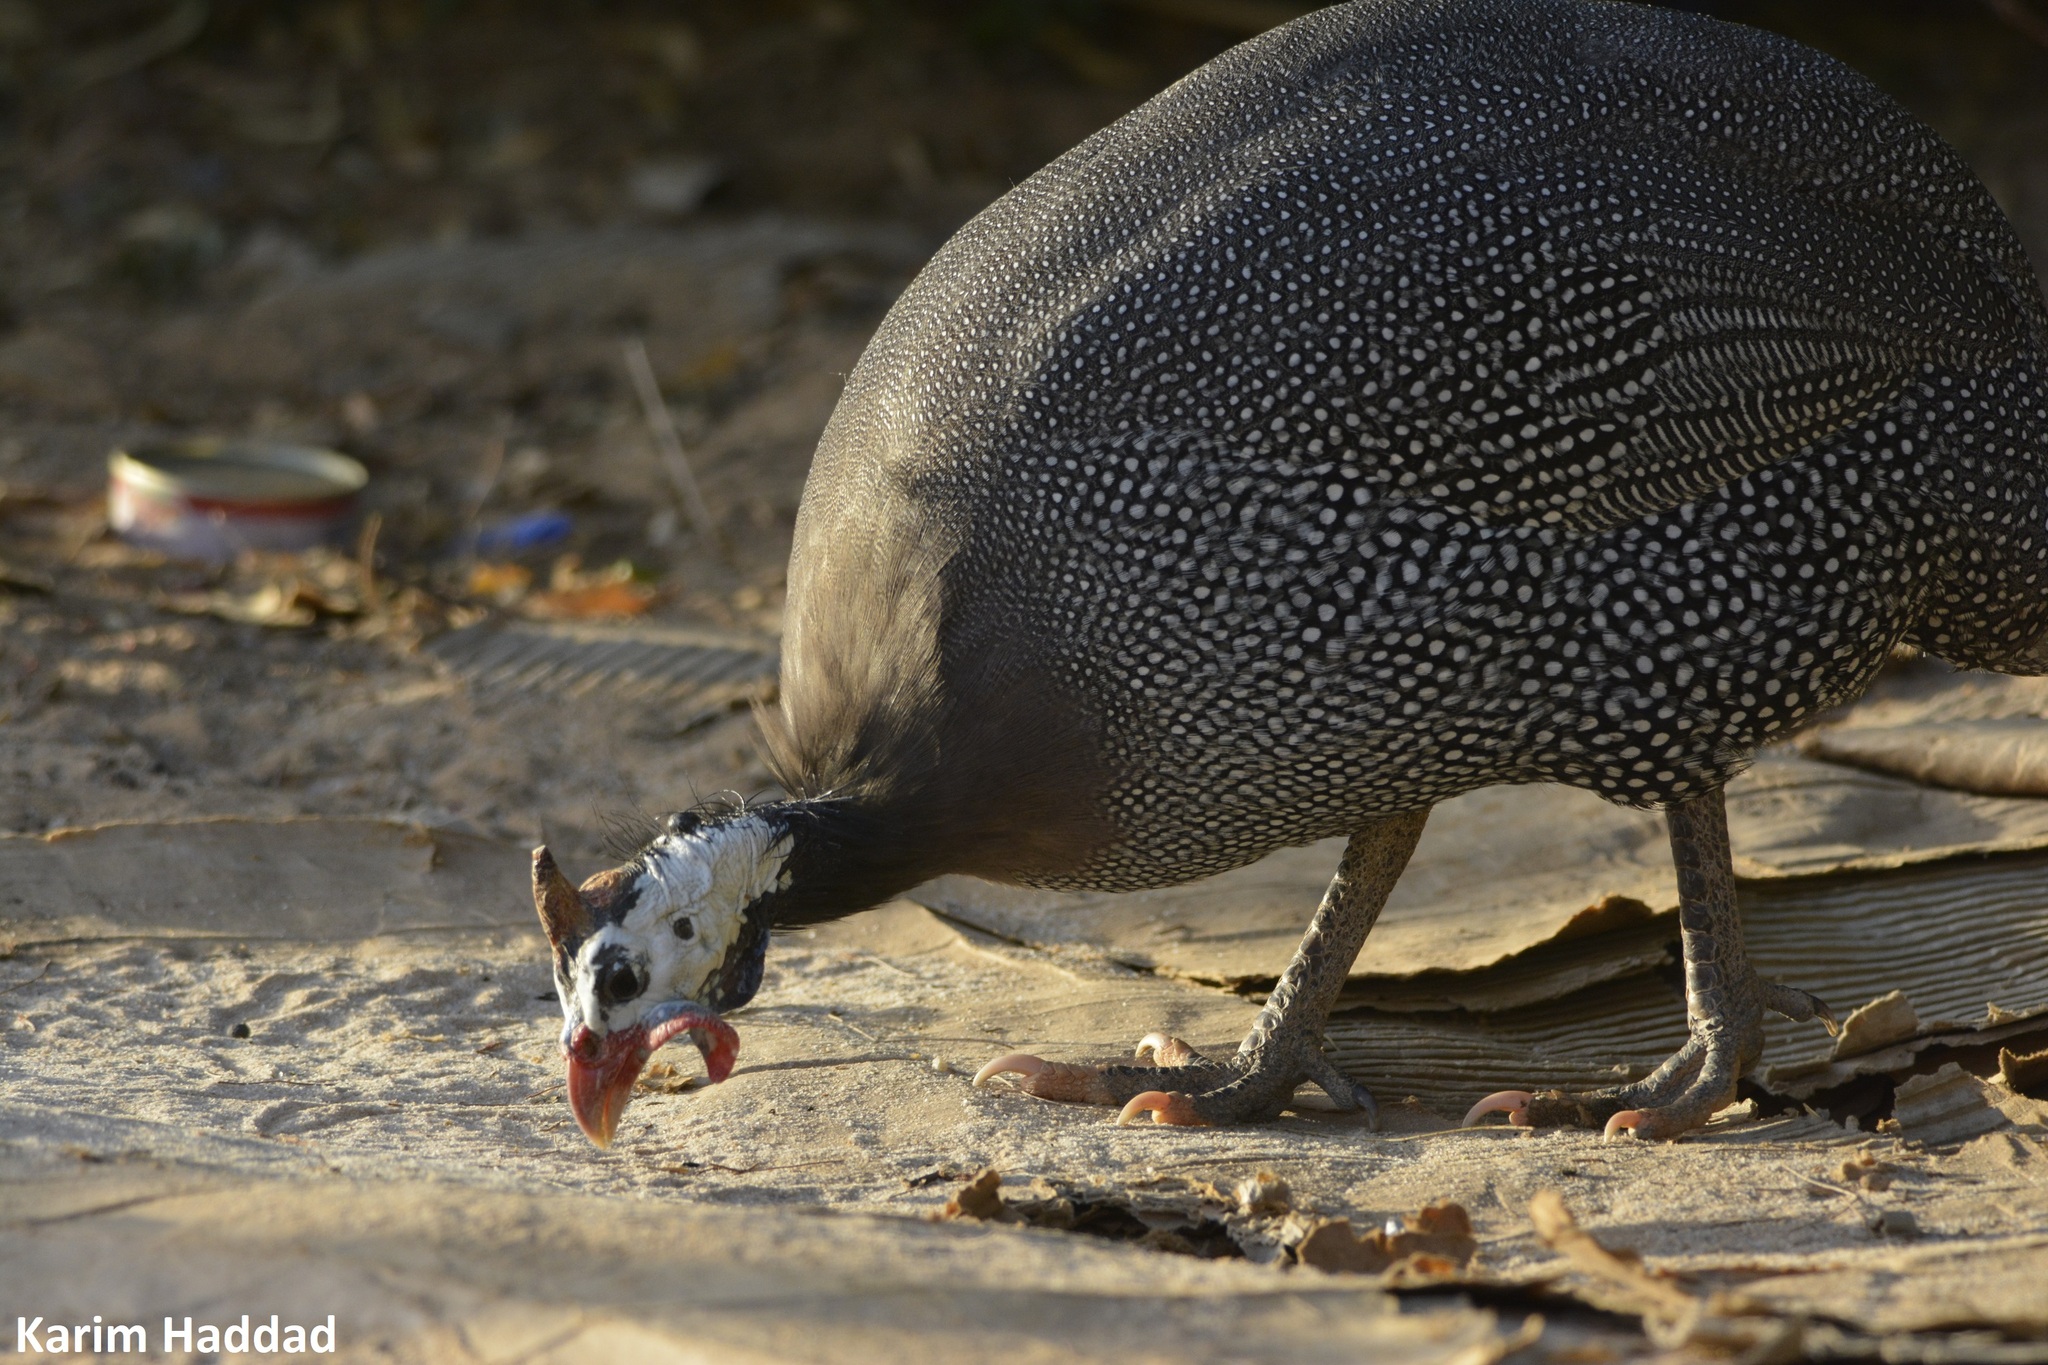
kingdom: Animalia
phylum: Chordata
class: Aves
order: Galliformes
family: Numididae
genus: Numida
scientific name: Numida meleagris
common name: Helmeted guineafowl
